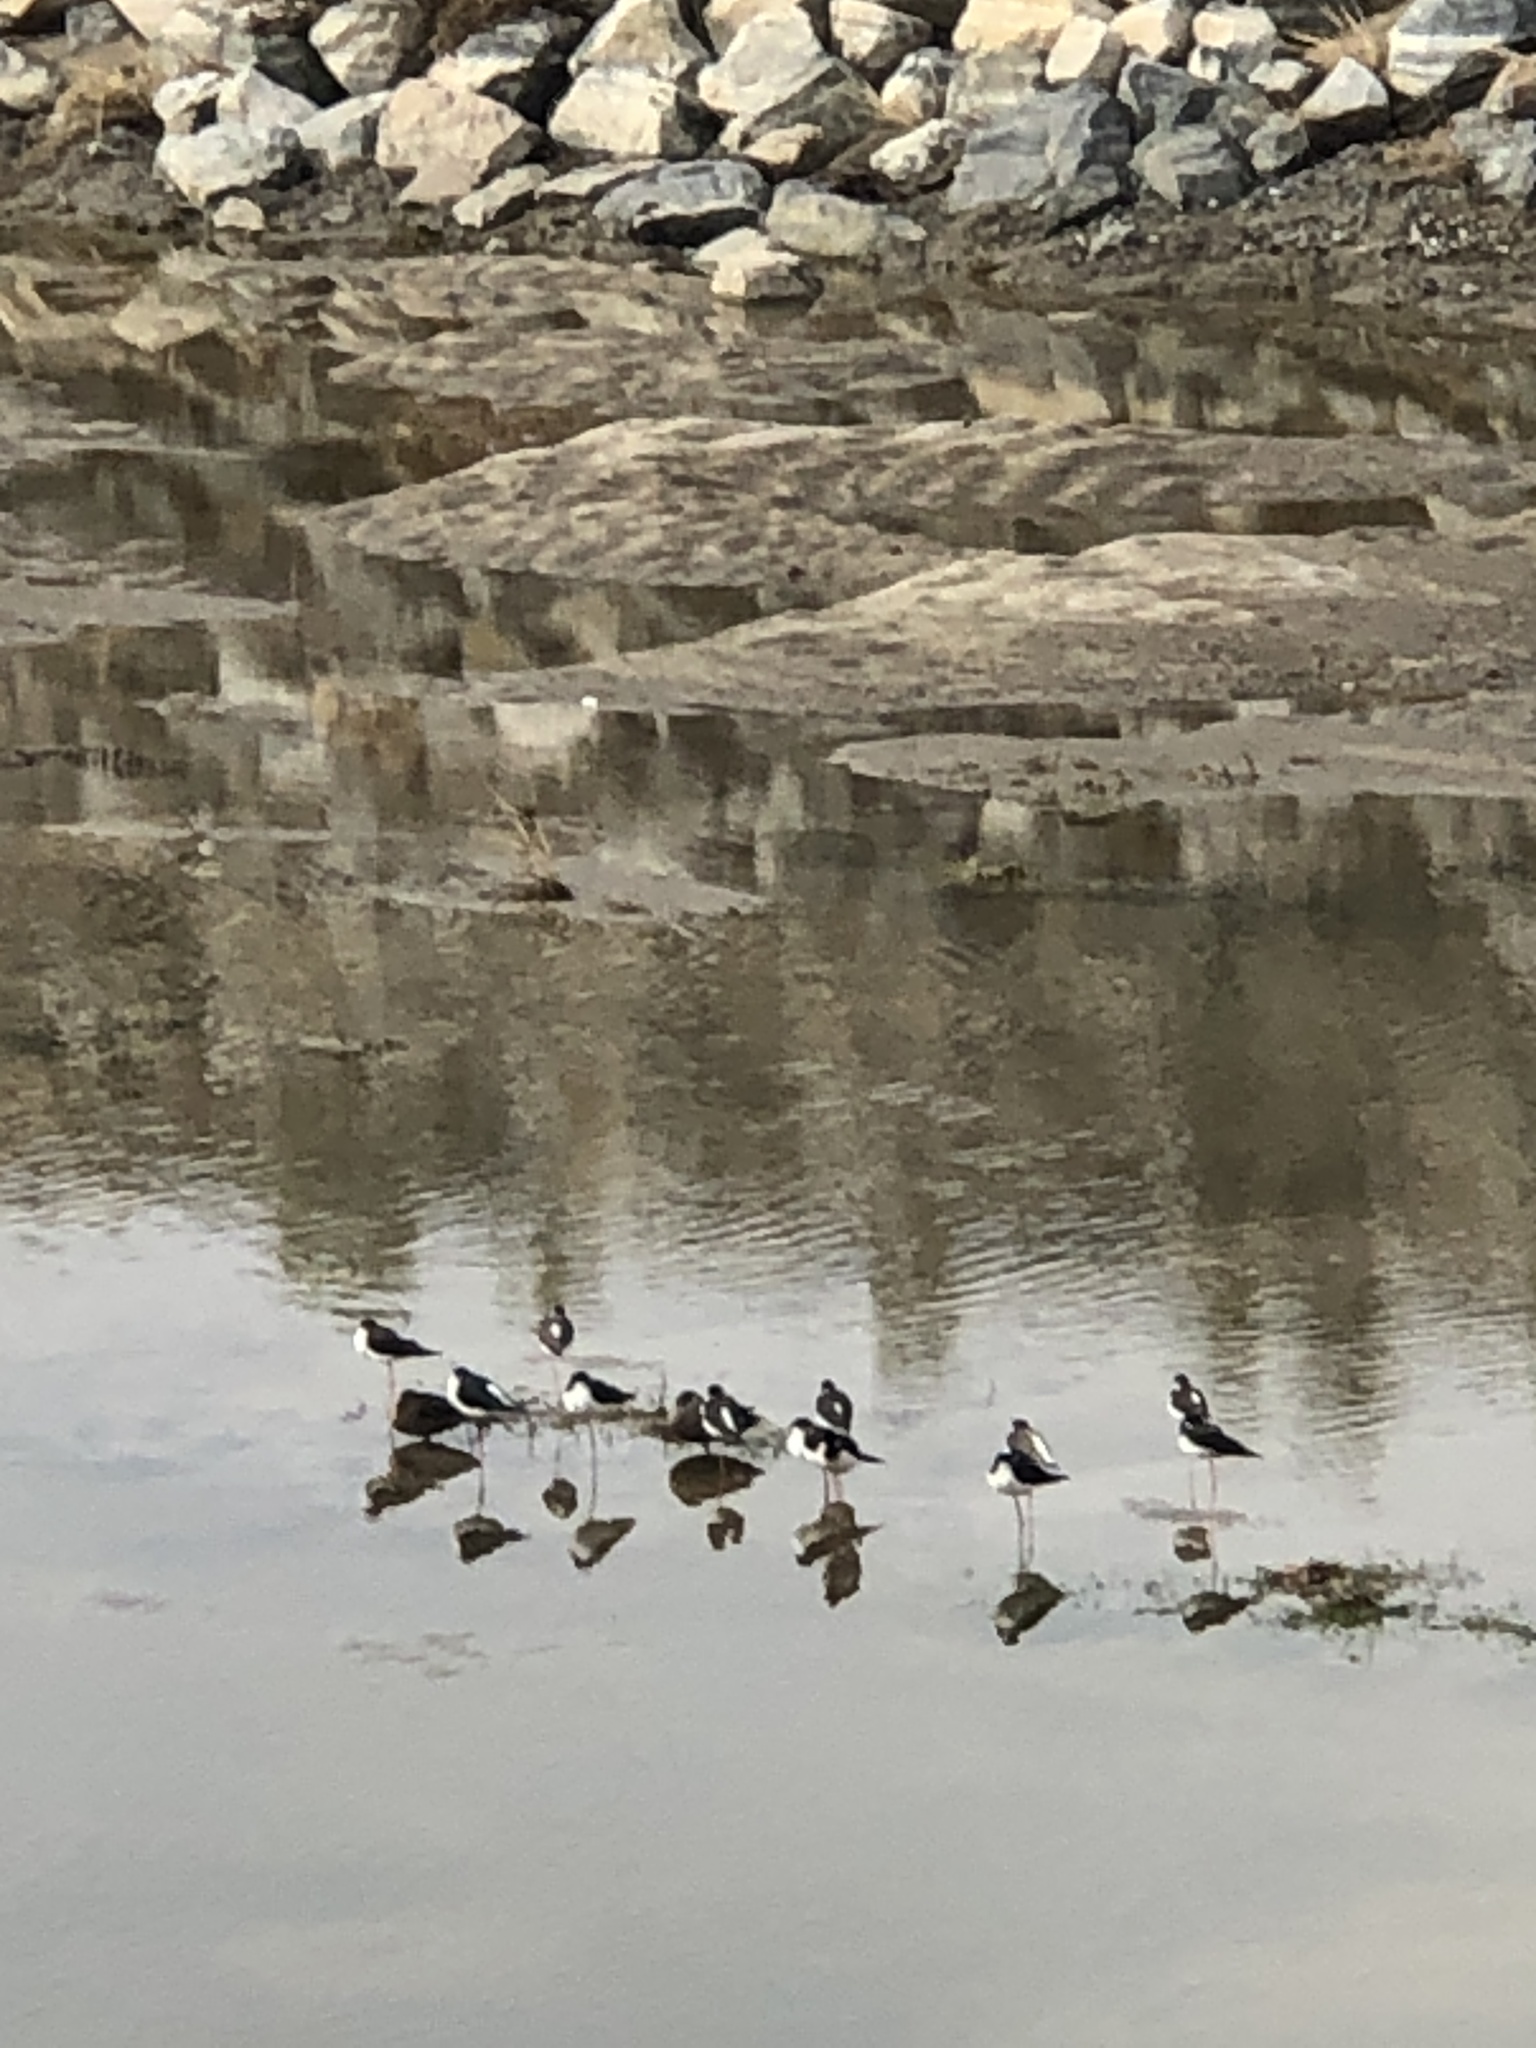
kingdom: Animalia
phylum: Chordata
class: Aves
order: Charadriiformes
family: Recurvirostridae
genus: Himantopus
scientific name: Himantopus mexicanus
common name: Black-necked stilt
